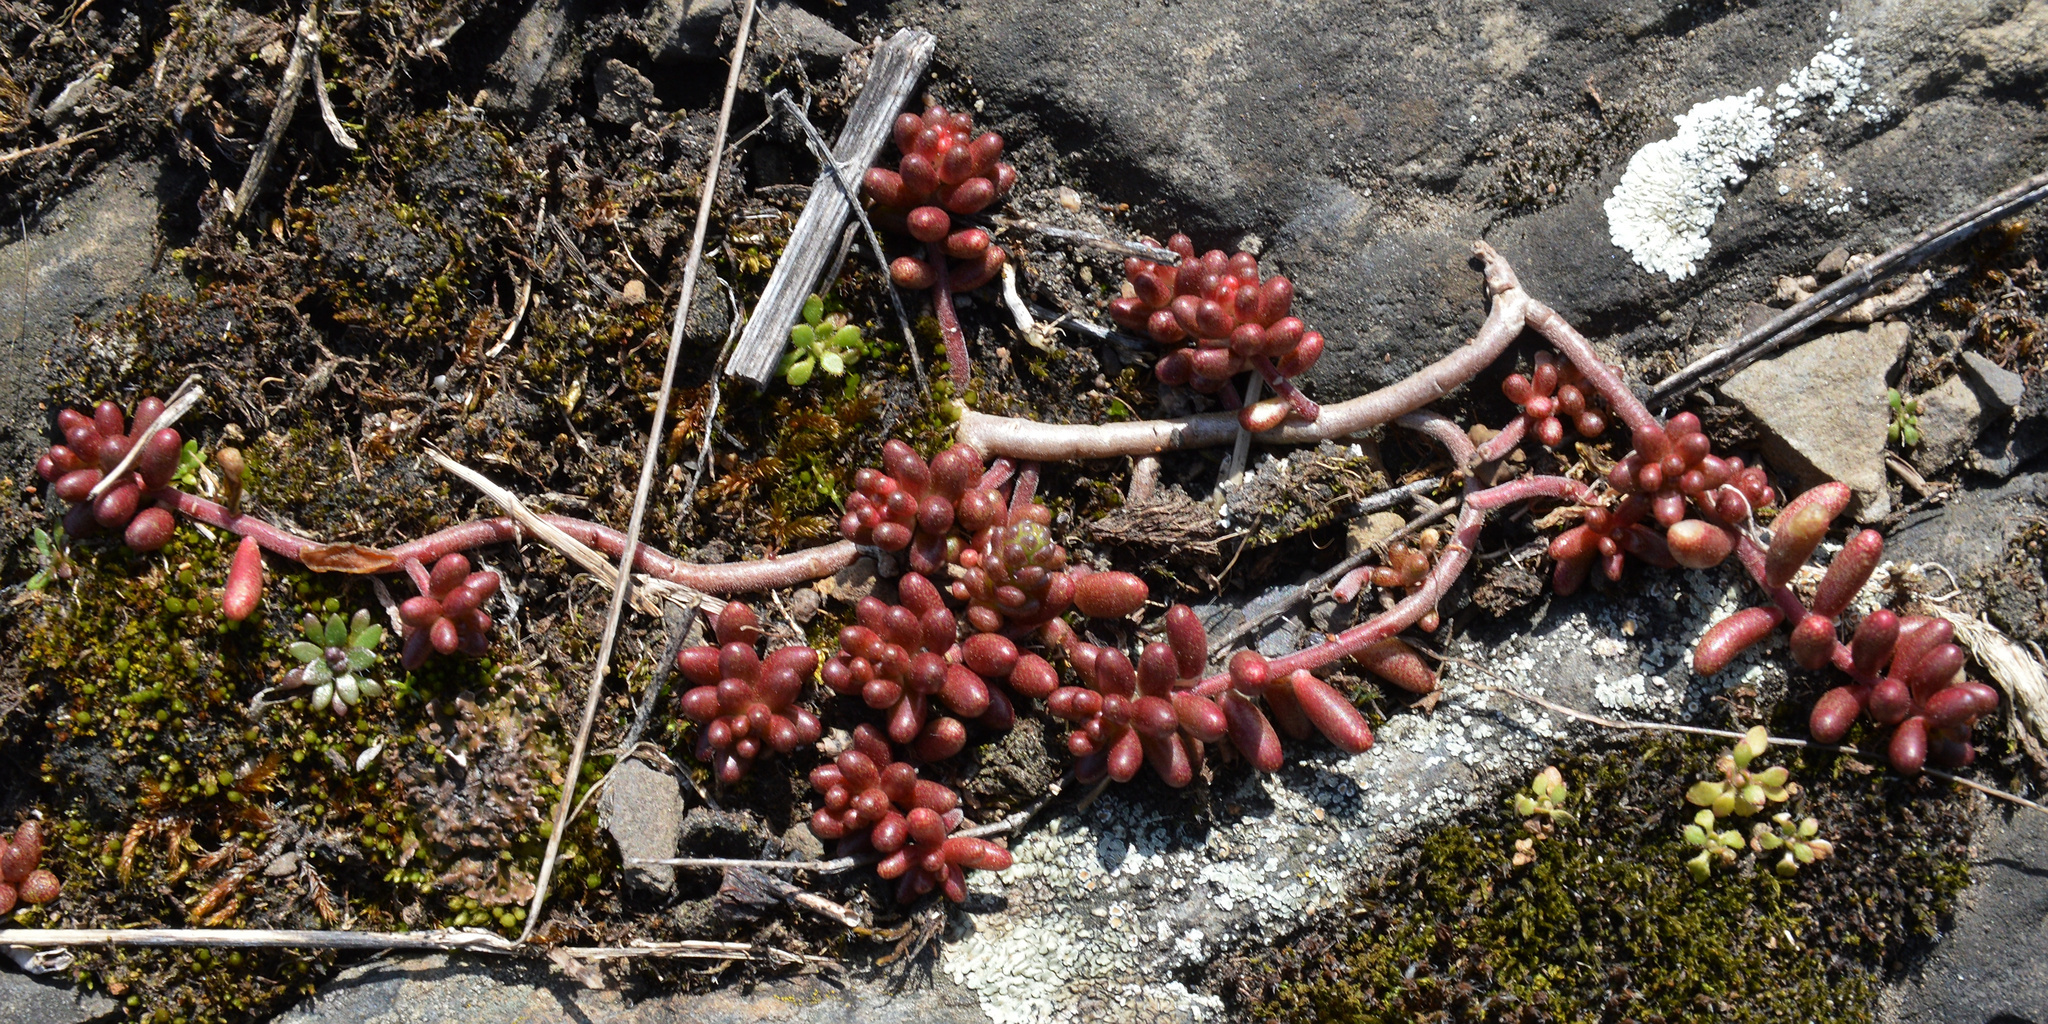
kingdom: Plantae
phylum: Tracheophyta
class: Magnoliopsida
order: Saxifragales
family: Crassulaceae
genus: Sedum
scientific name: Sedum album
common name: White stonecrop
